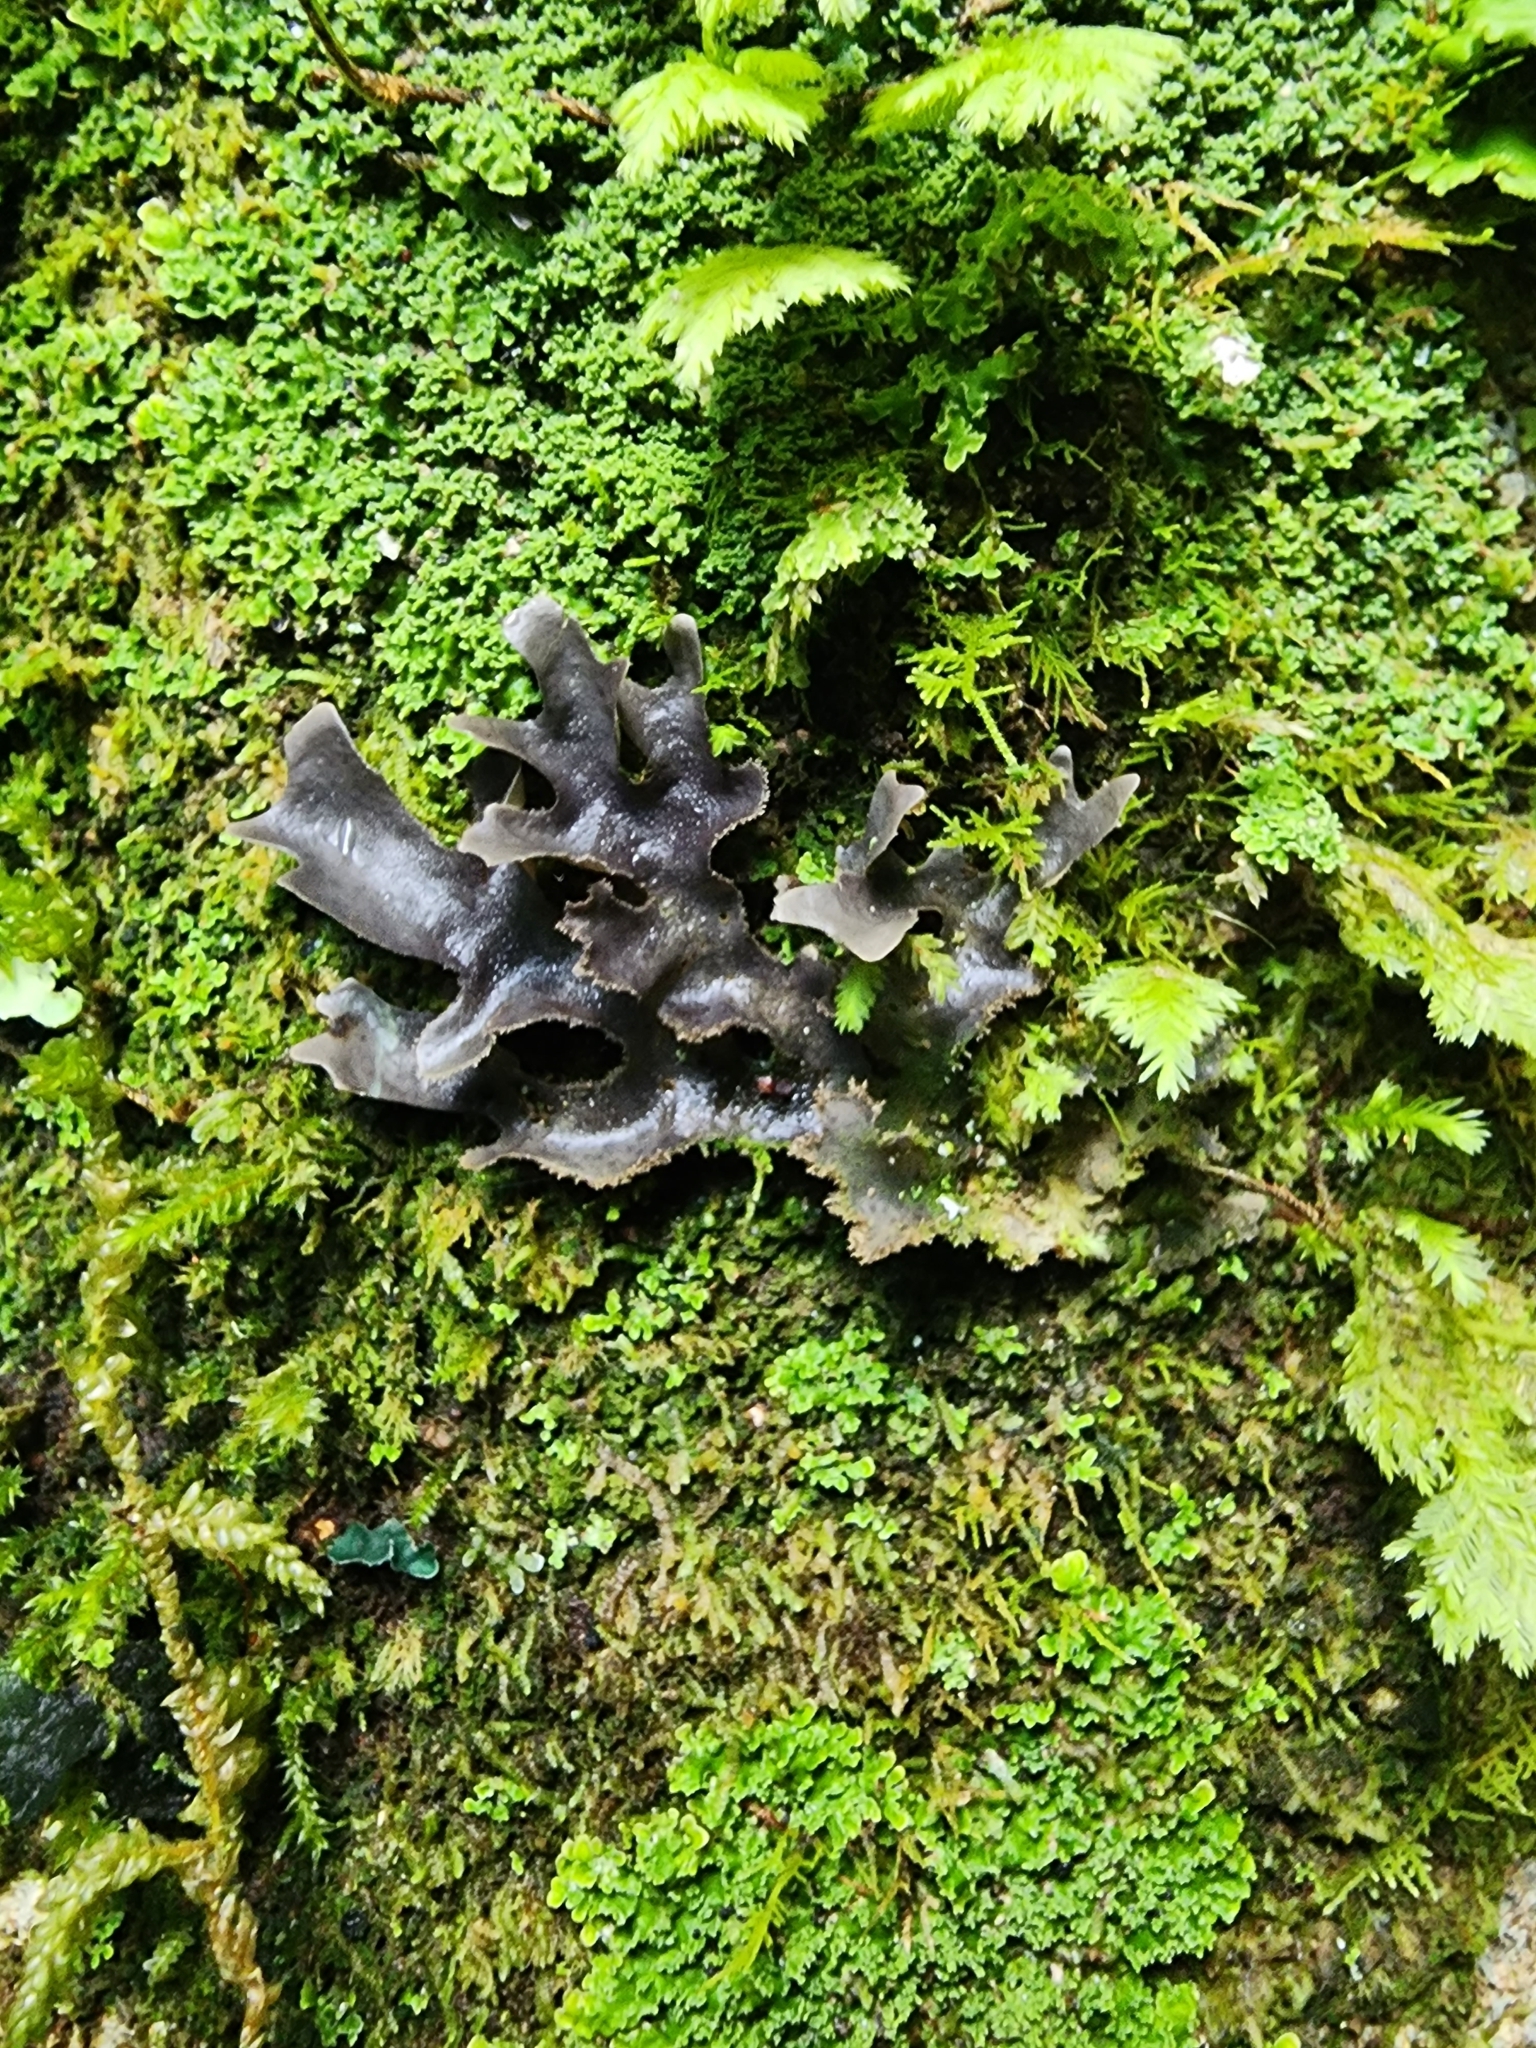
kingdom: Fungi
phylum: Ascomycota
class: Lecanoromycetes
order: Peltigerales
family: Lobariaceae
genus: Pseudocyphellaria
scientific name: Pseudocyphellaria dissimilis
